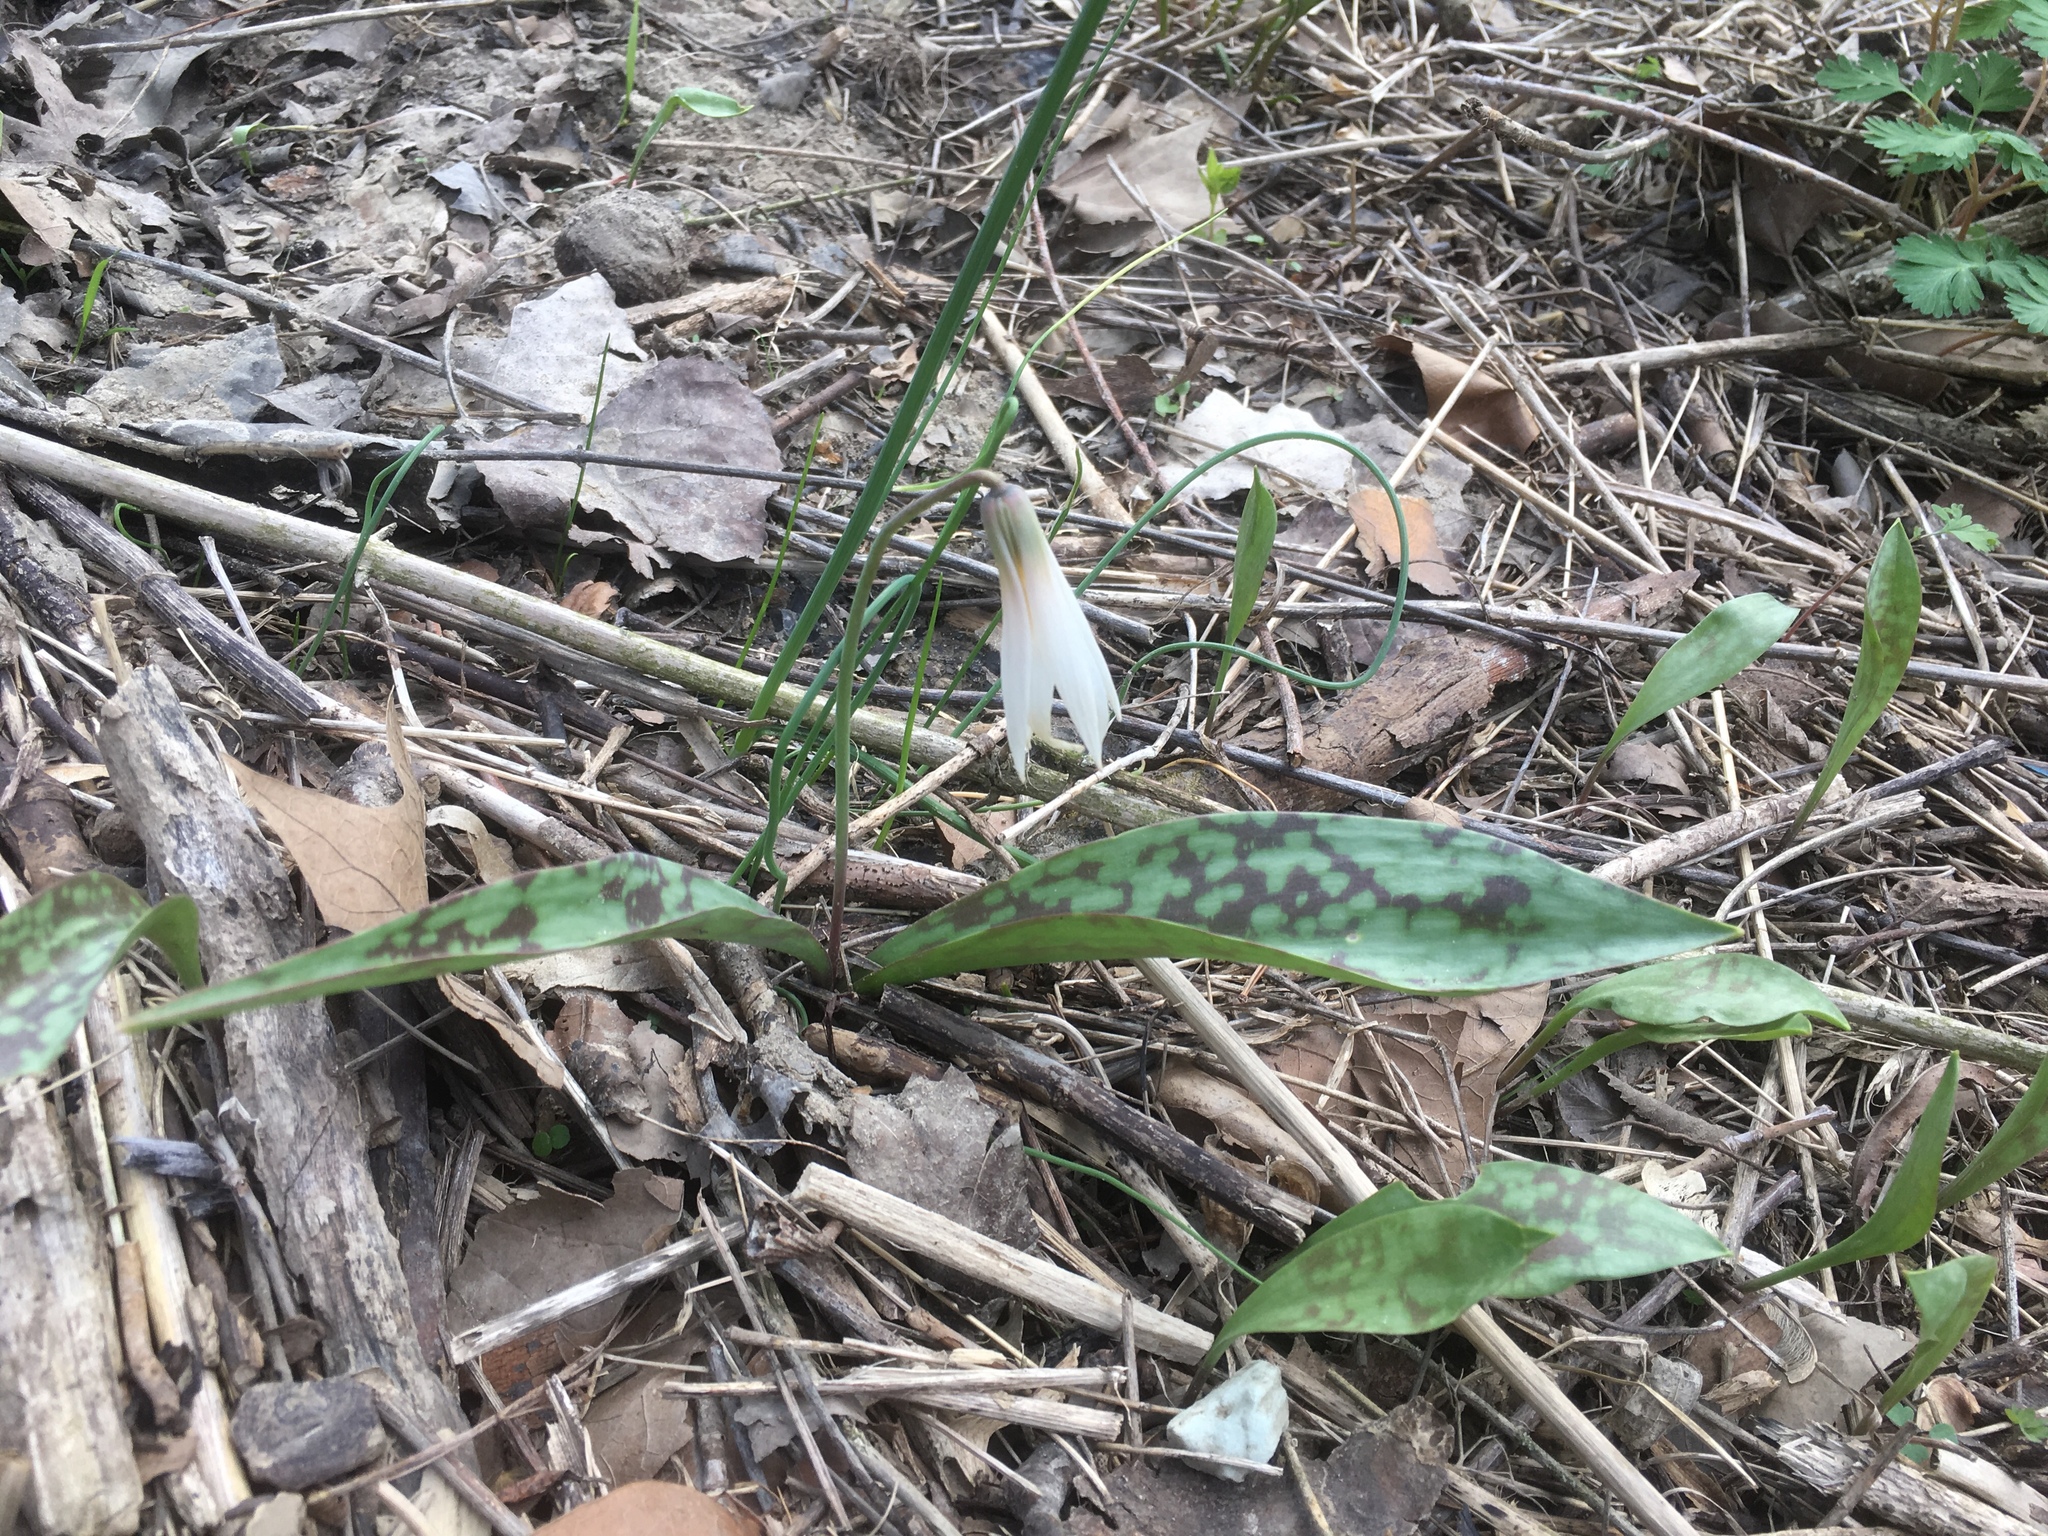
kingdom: Plantae
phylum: Tracheophyta
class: Liliopsida
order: Liliales
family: Liliaceae
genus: Erythronium
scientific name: Erythronium albidum
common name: White trout-lily
